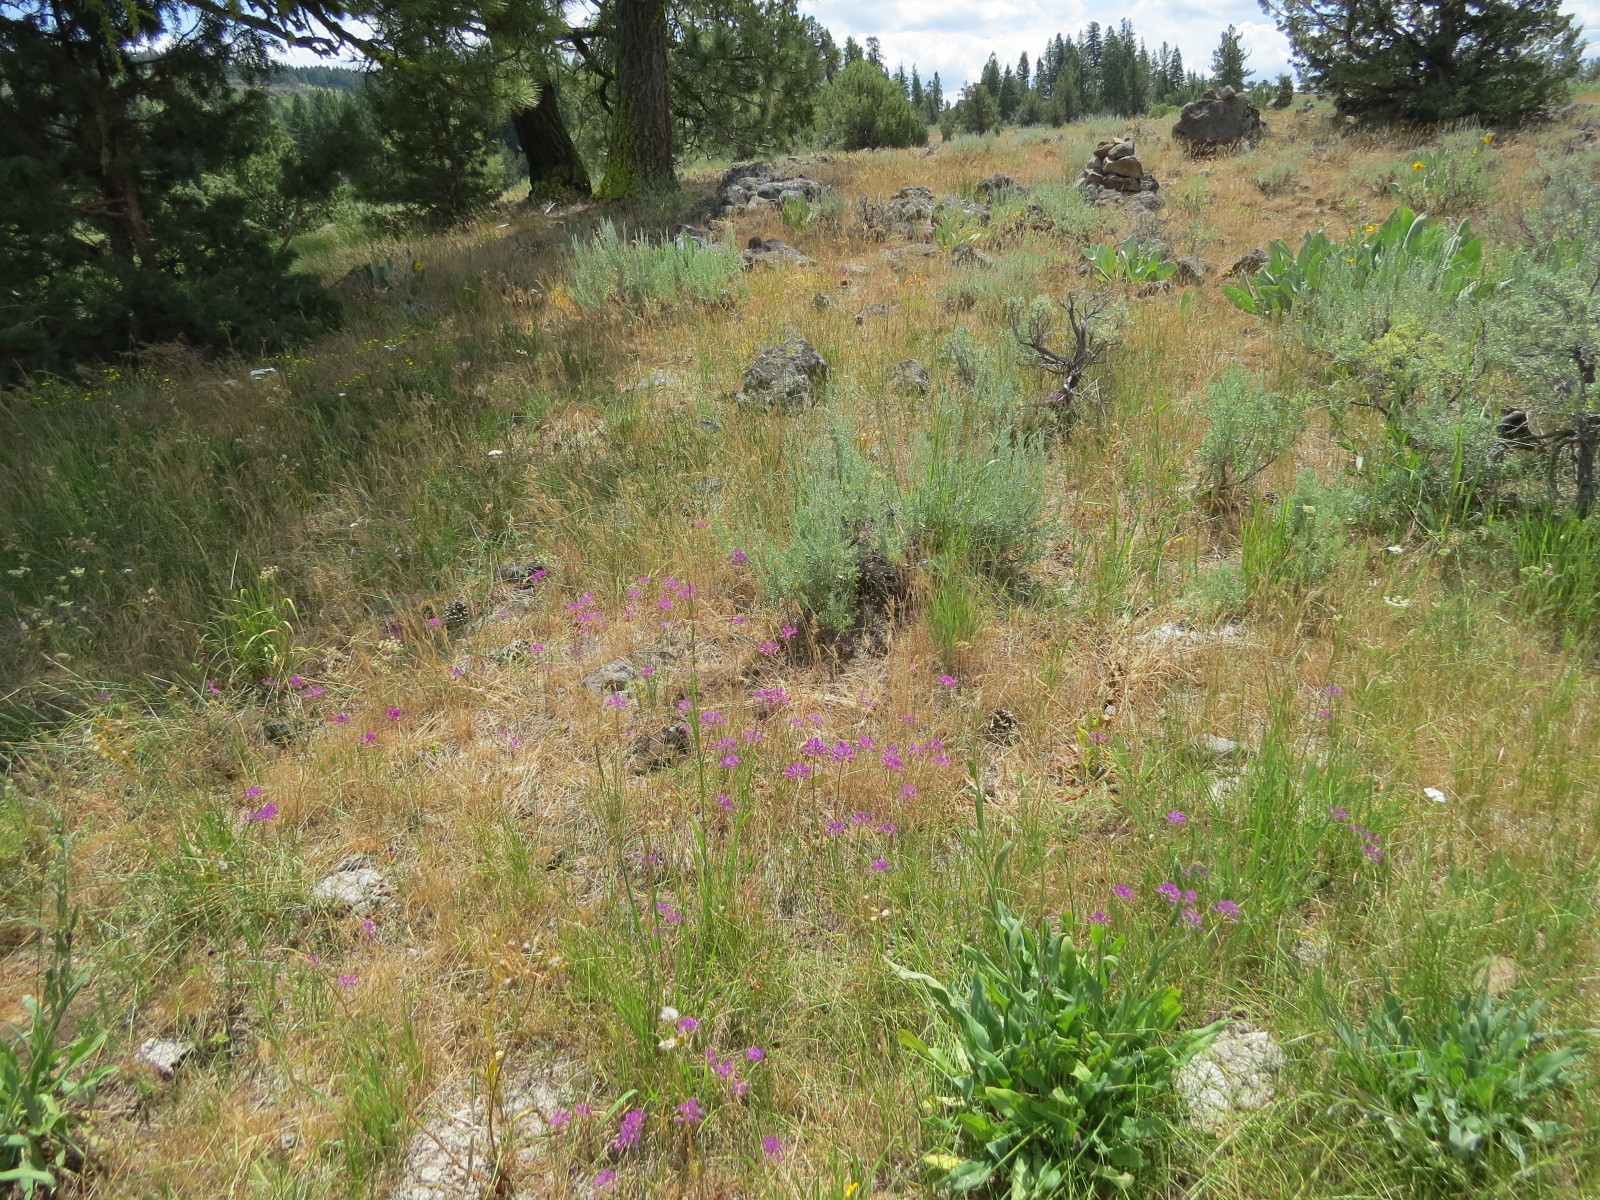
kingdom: Plantae
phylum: Tracheophyta
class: Liliopsida
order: Asparagales
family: Amaryllidaceae
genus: Allium
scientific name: Allium acuminatum
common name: Hooker's onion
